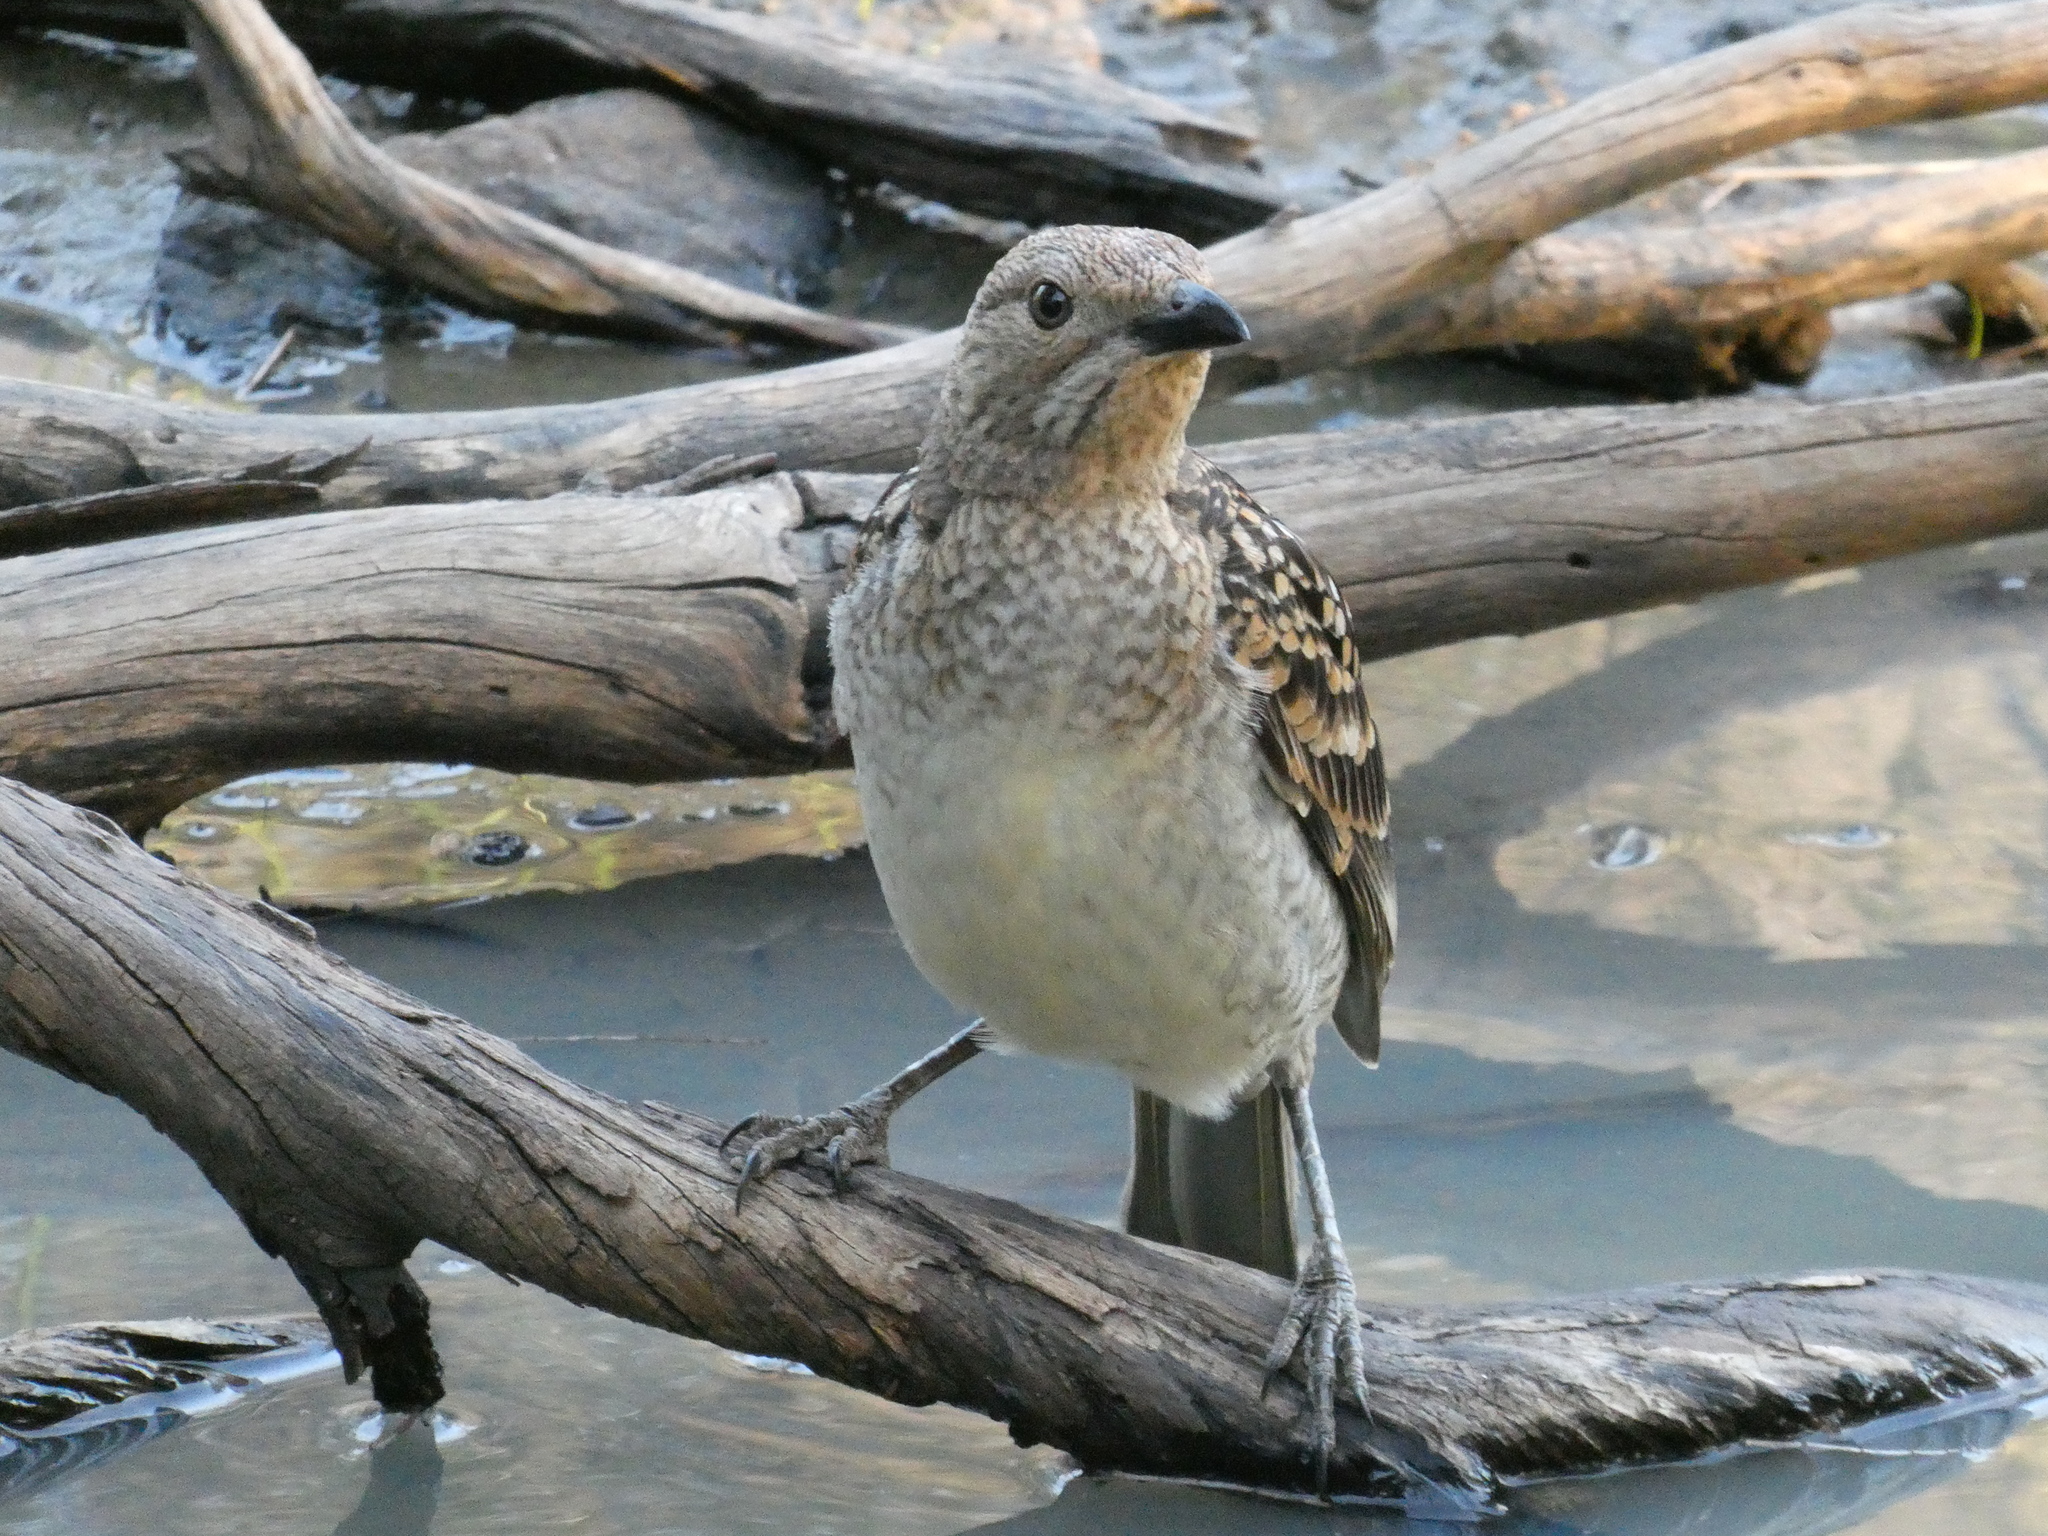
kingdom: Animalia
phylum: Chordata
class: Aves
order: Passeriformes
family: Ptilonorhynchidae
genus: Chlamydera
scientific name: Chlamydera maculata
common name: Spotted bowerbird
